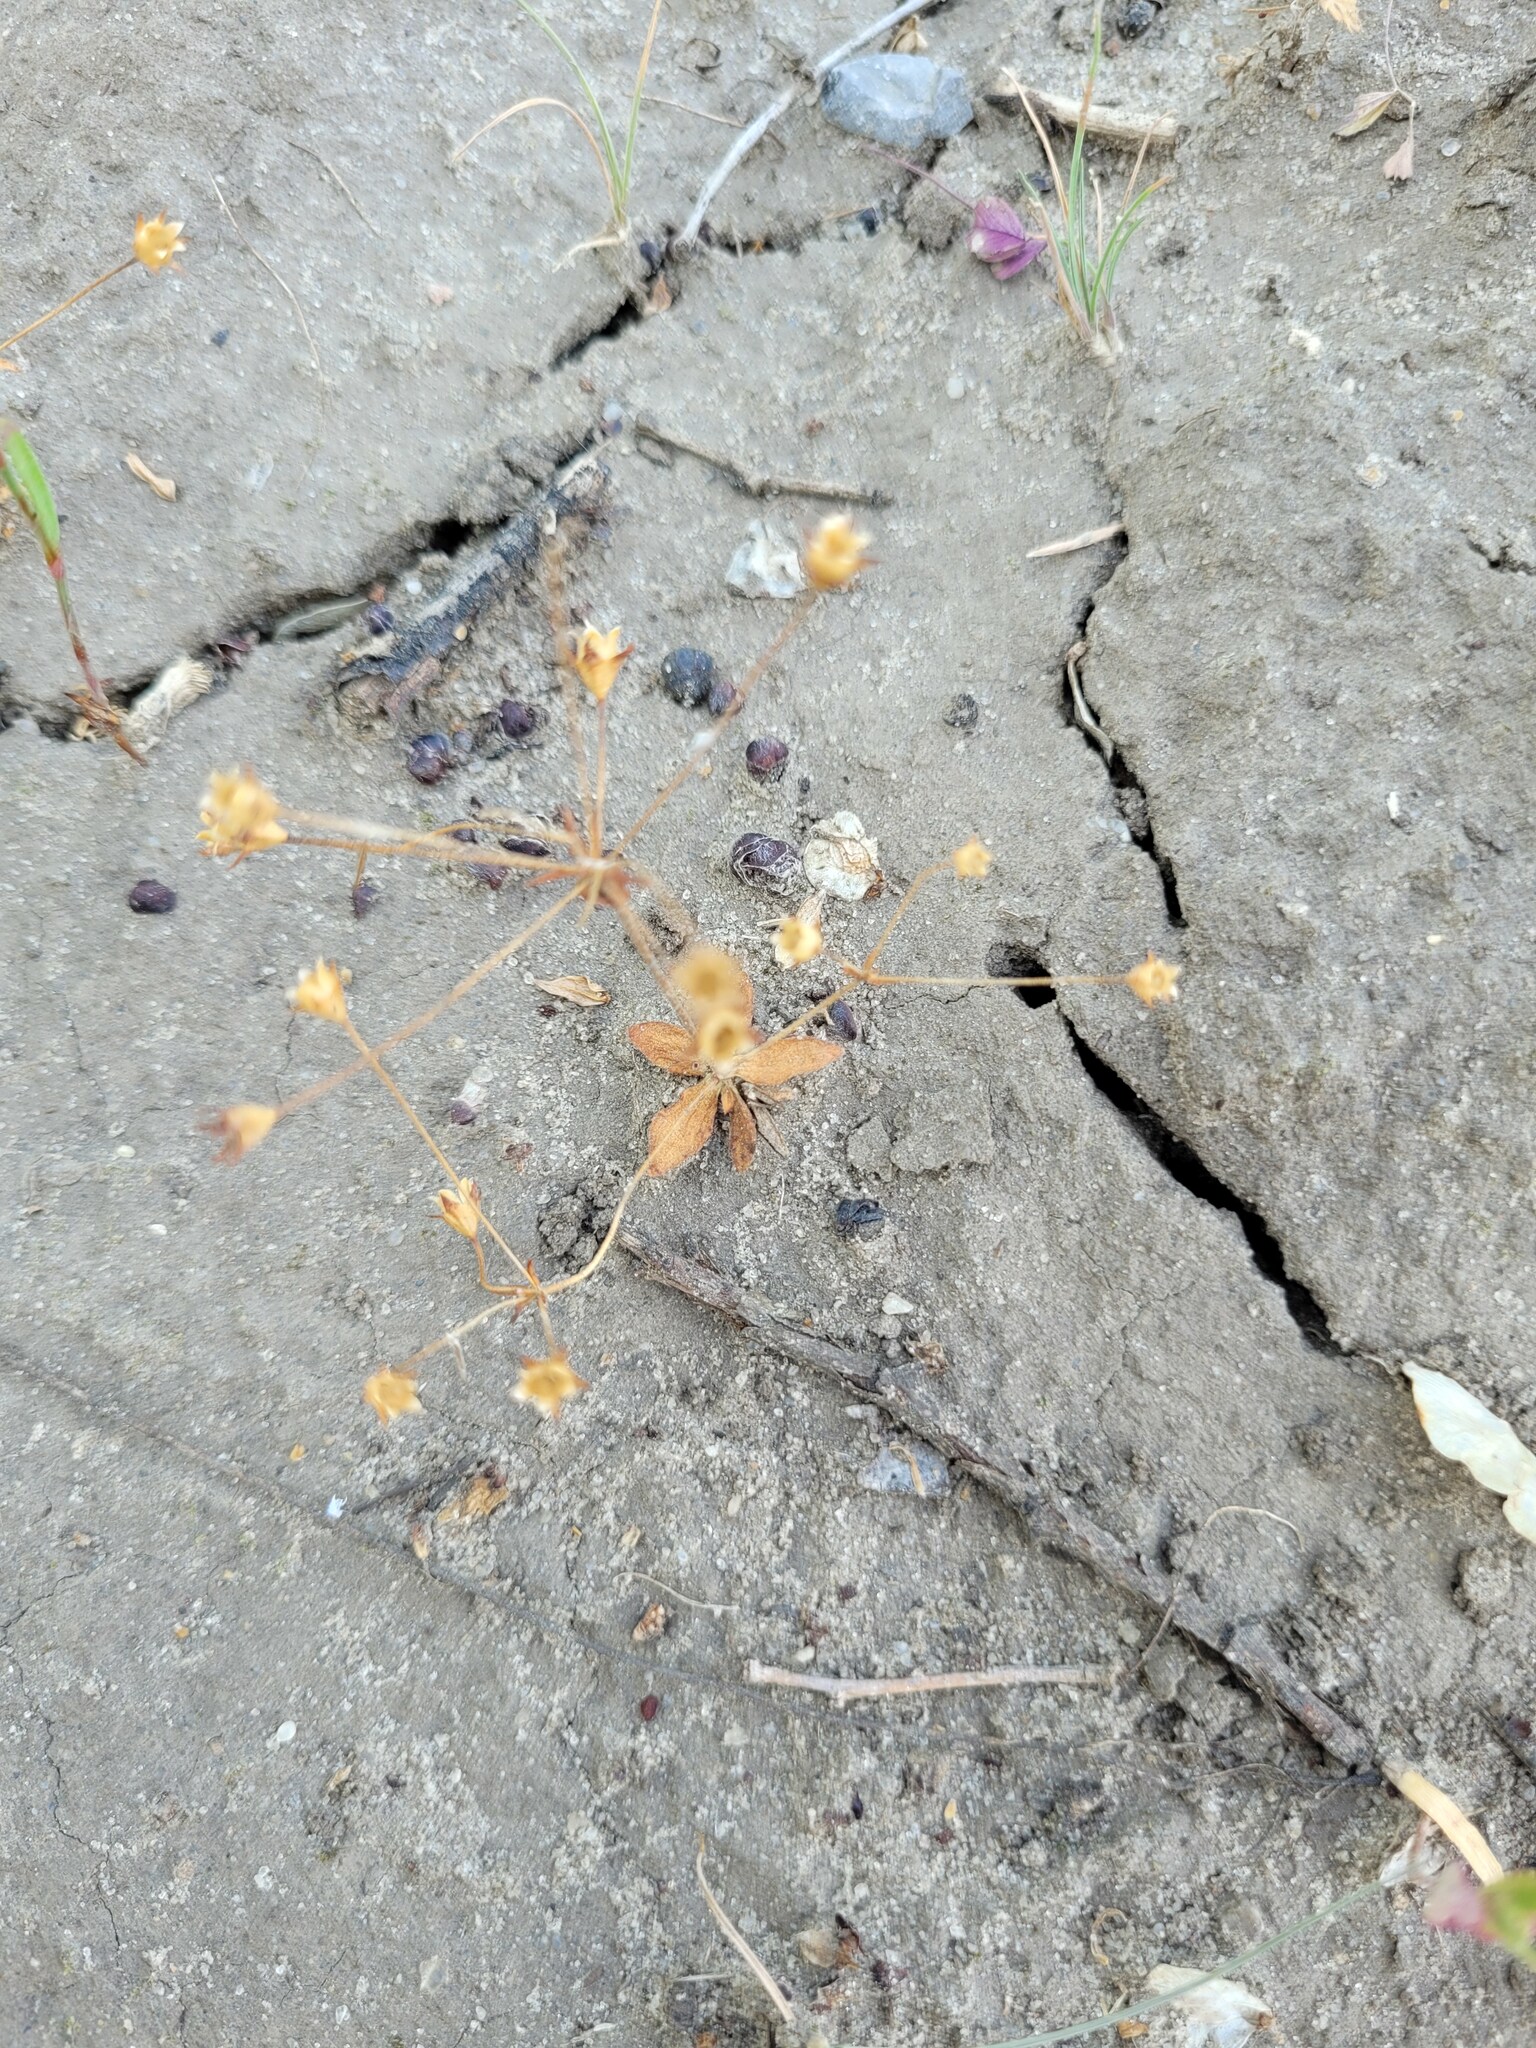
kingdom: Plantae
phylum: Tracheophyta
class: Magnoliopsida
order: Ericales
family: Primulaceae
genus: Androsace
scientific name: Androsace elongata
